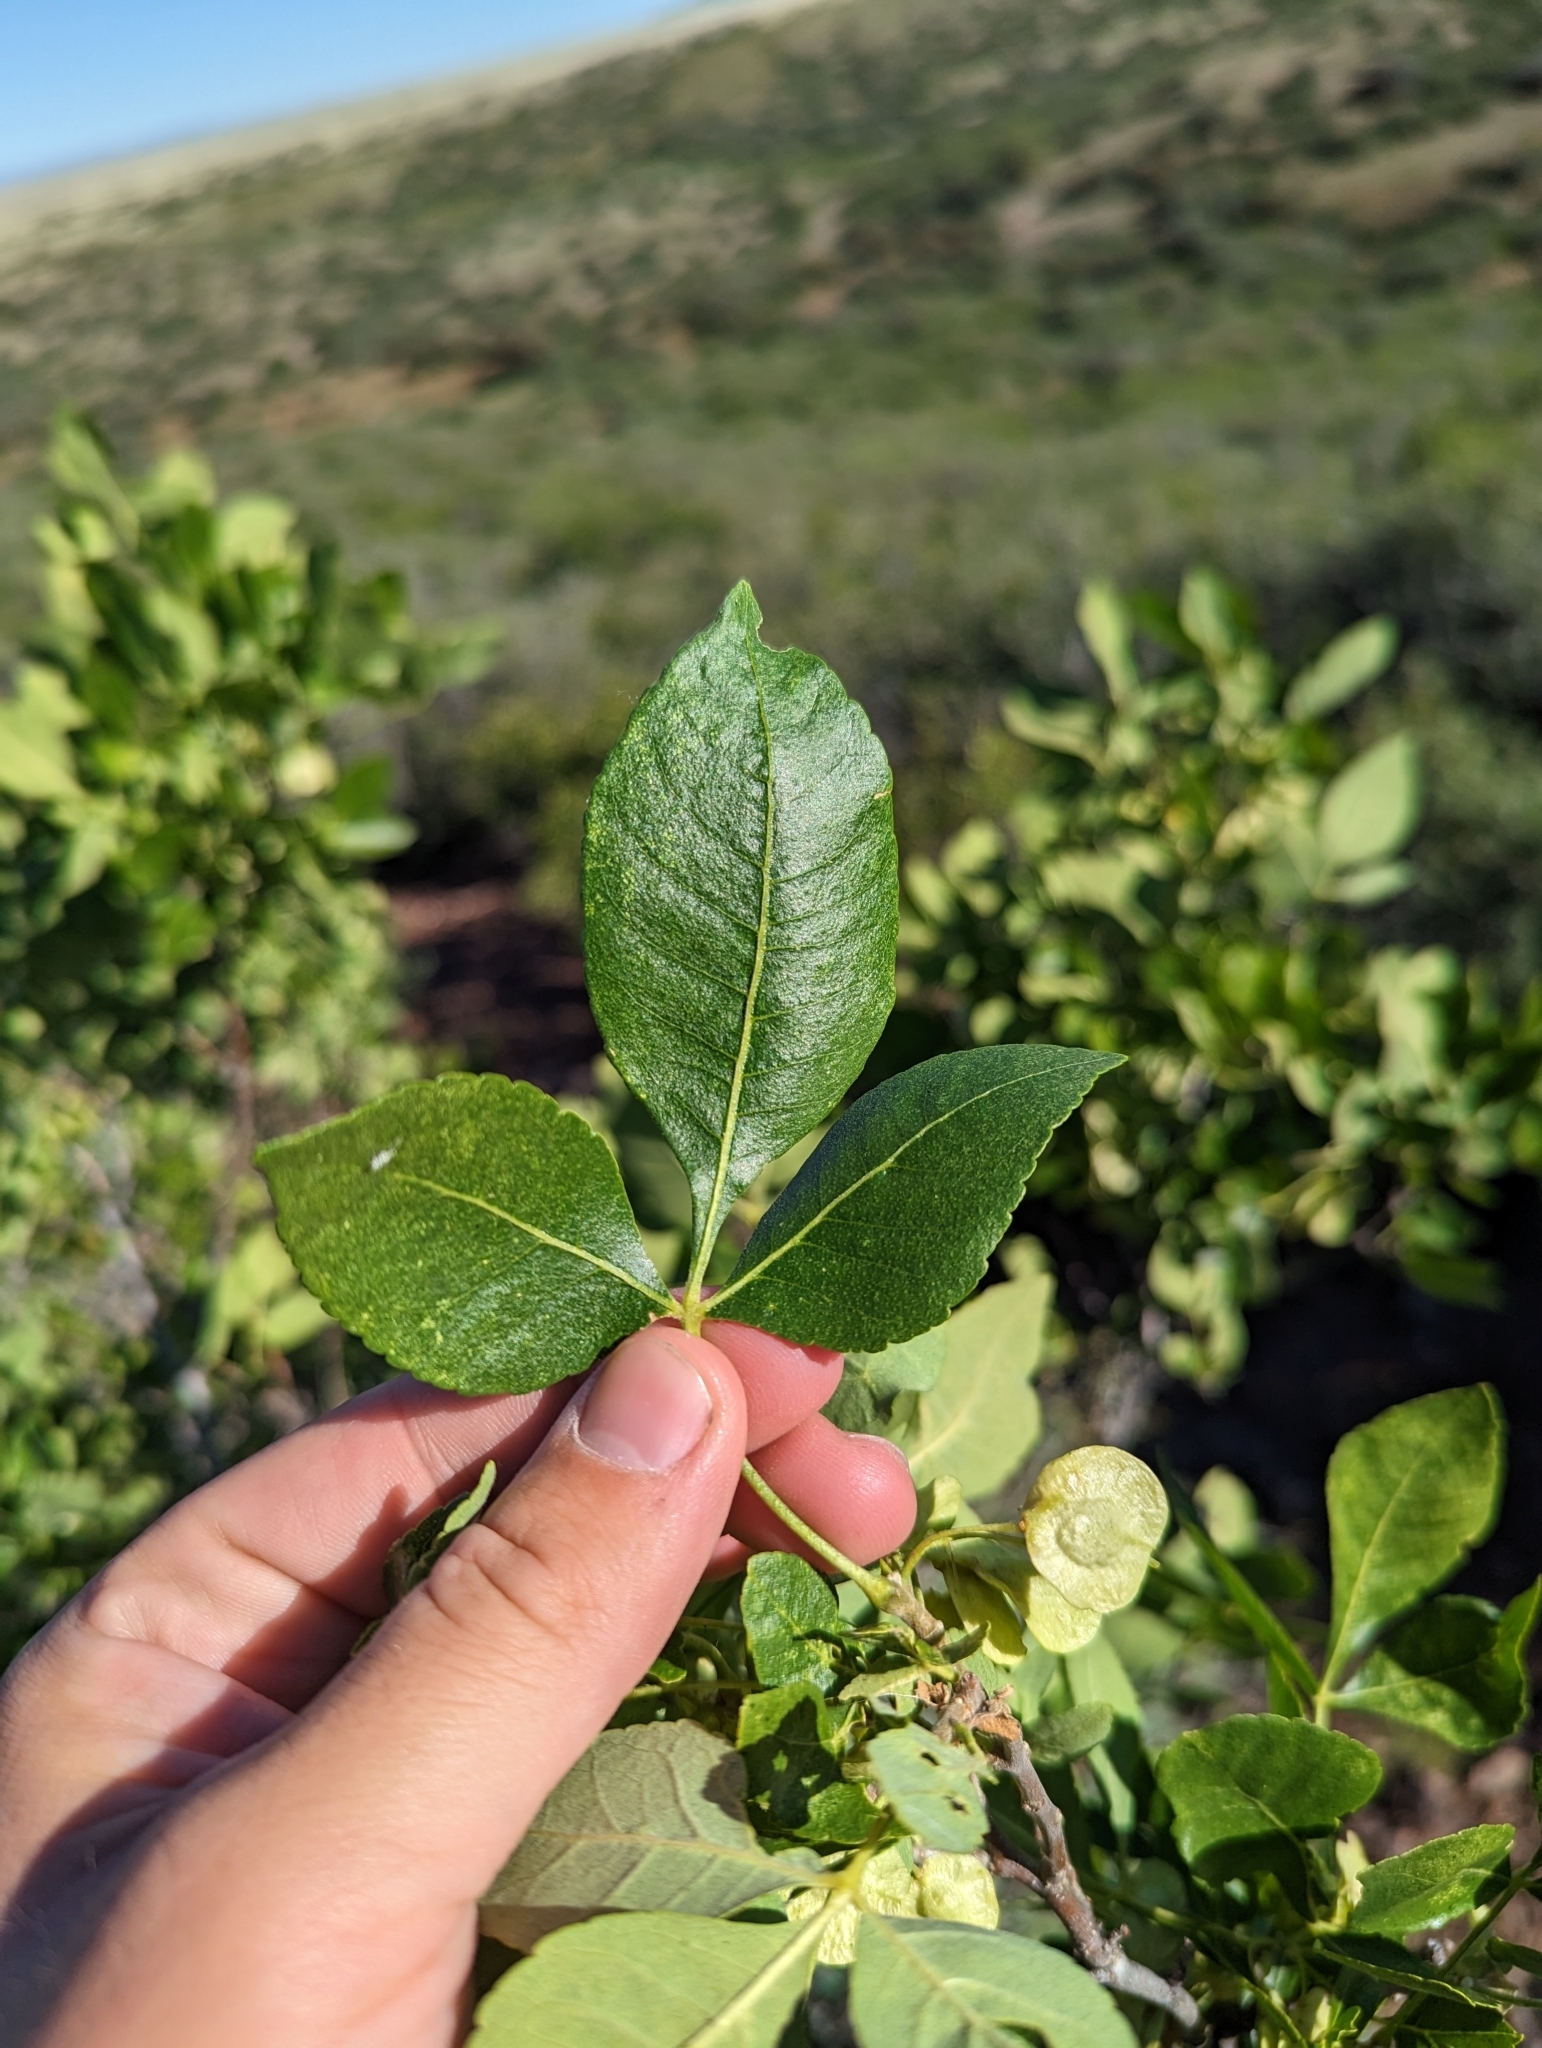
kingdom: Plantae
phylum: Tracheophyta
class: Magnoliopsida
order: Sapindales
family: Rutaceae
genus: Ptelea
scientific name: Ptelea trifoliata
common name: Common hop-tree
